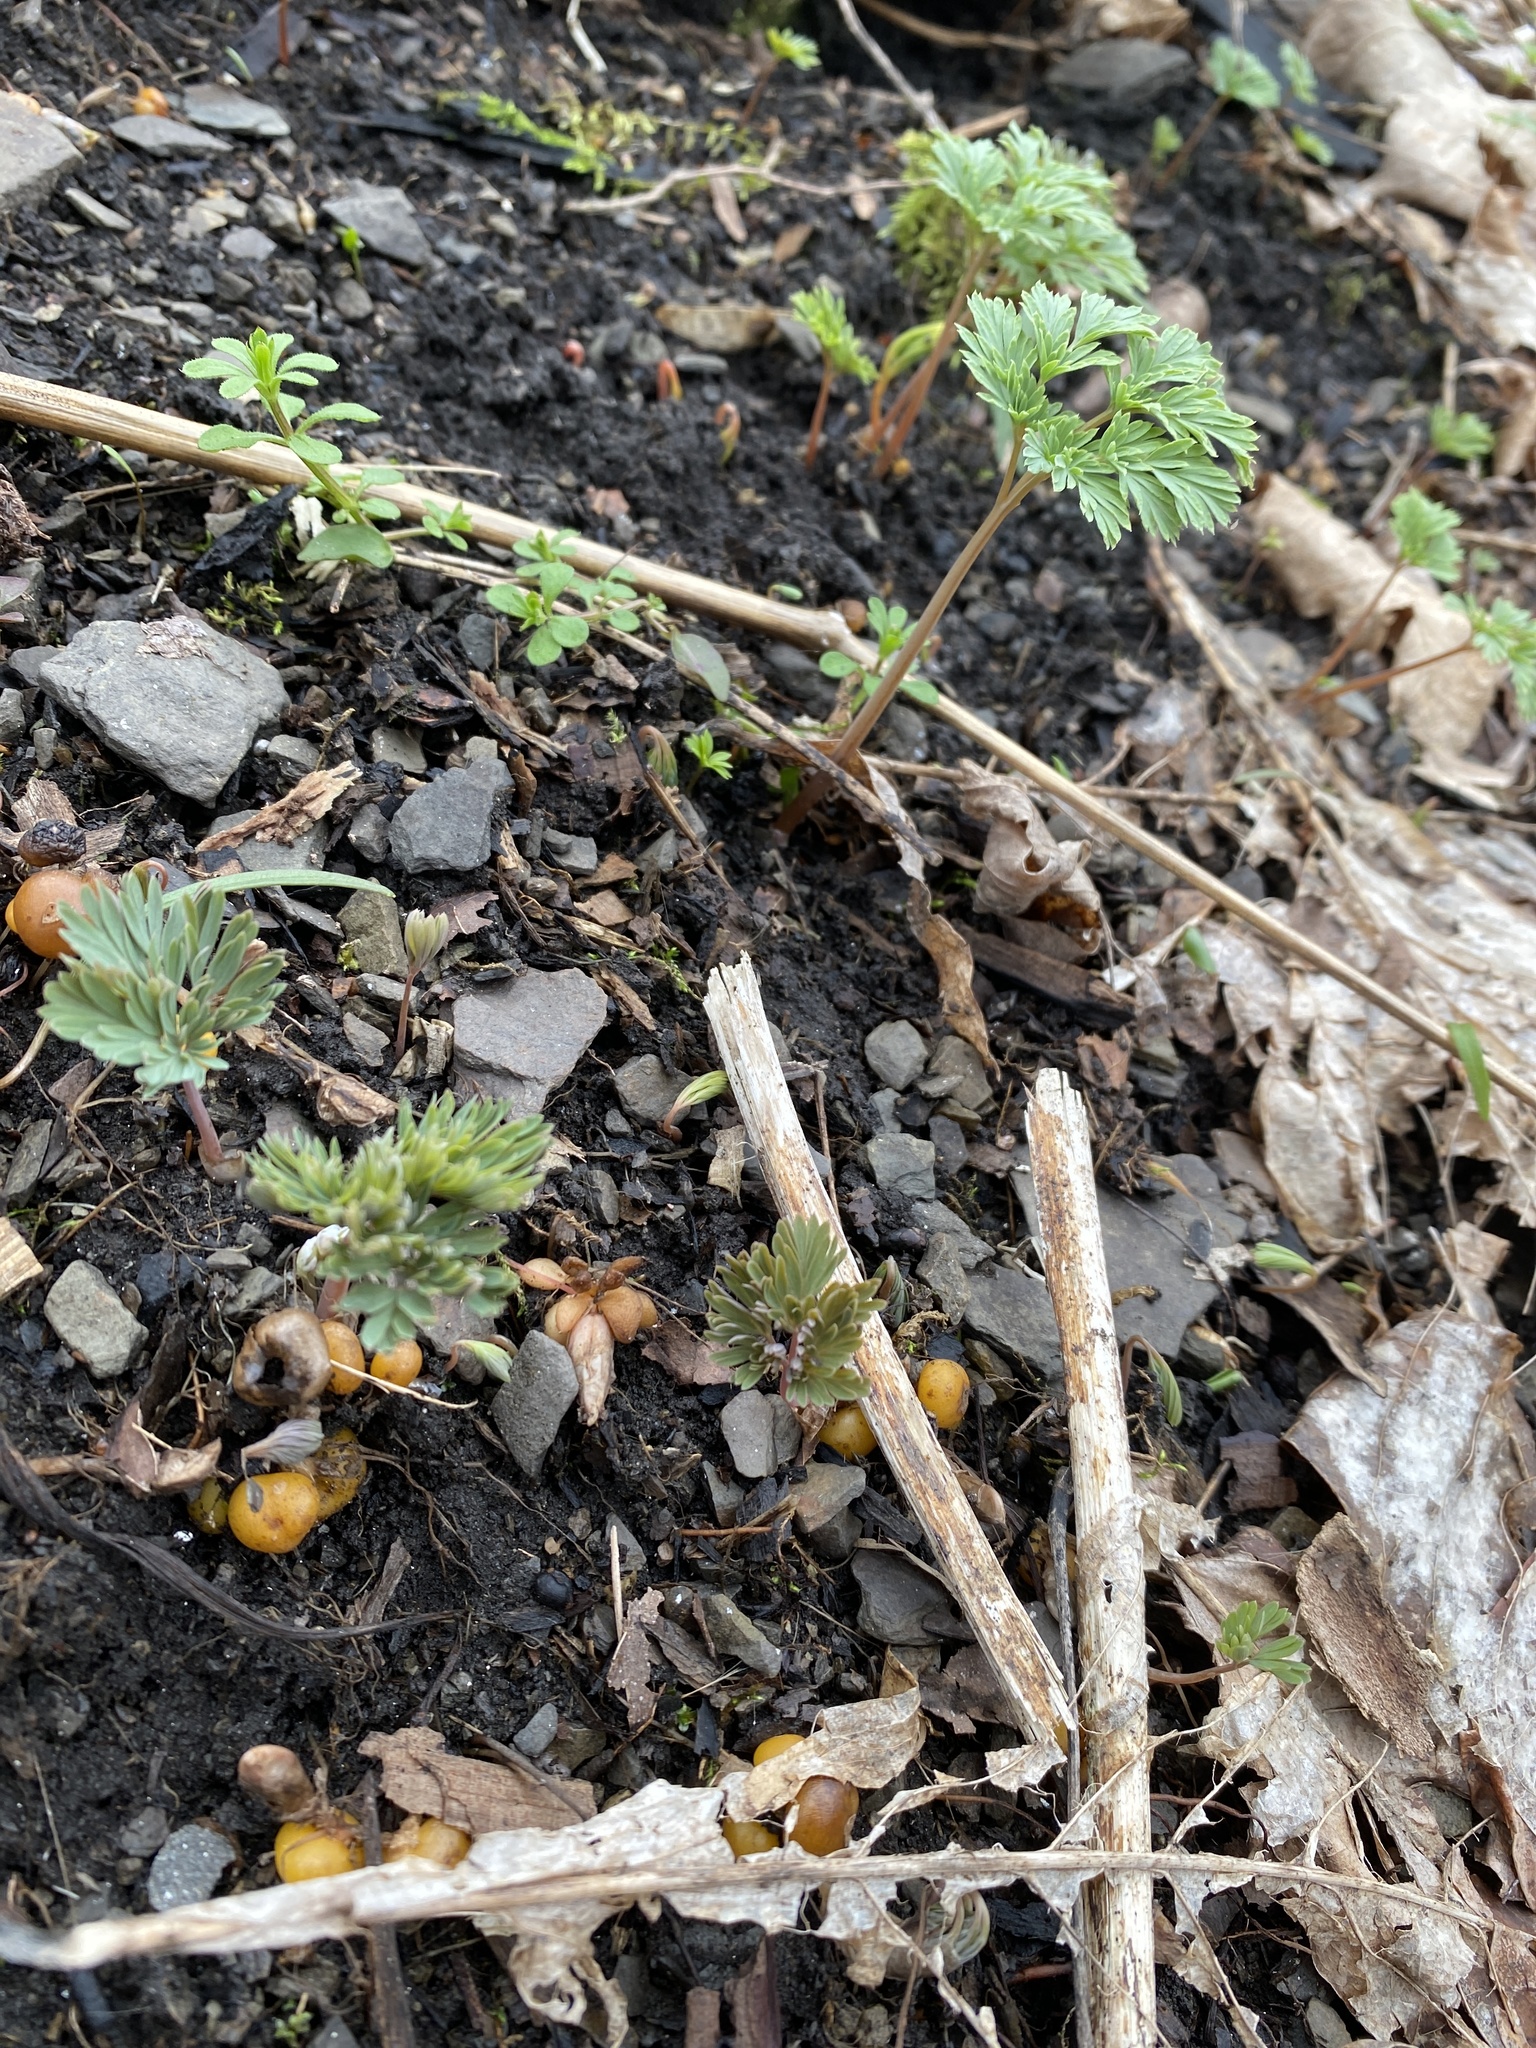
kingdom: Plantae
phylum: Tracheophyta
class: Magnoliopsida
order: Ranunculales
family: Papaveraceae
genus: Dicentra
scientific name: Dicentra canadensis
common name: Squirrel-corn
